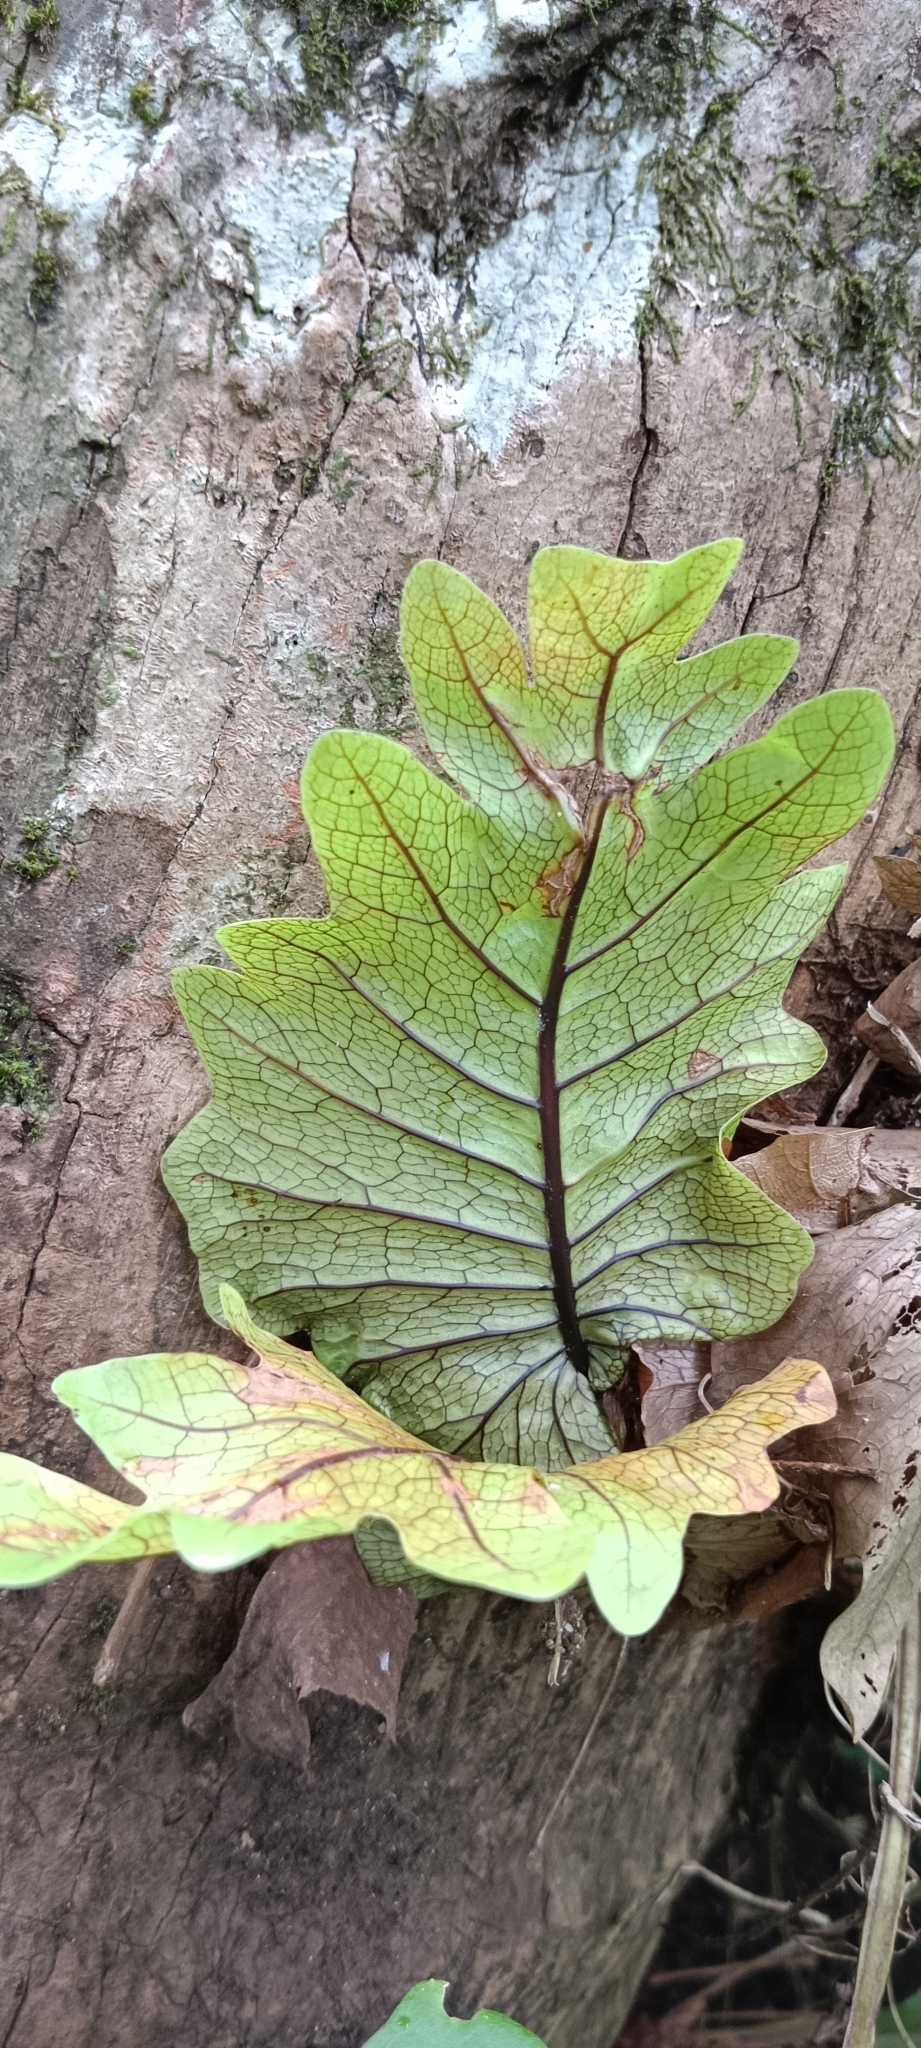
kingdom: Plantae
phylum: Tracheophyta
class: Polypodiopsida
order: Polypodiales
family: Polypodiaceae
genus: Drynaria
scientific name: Drynaria quercifolia
